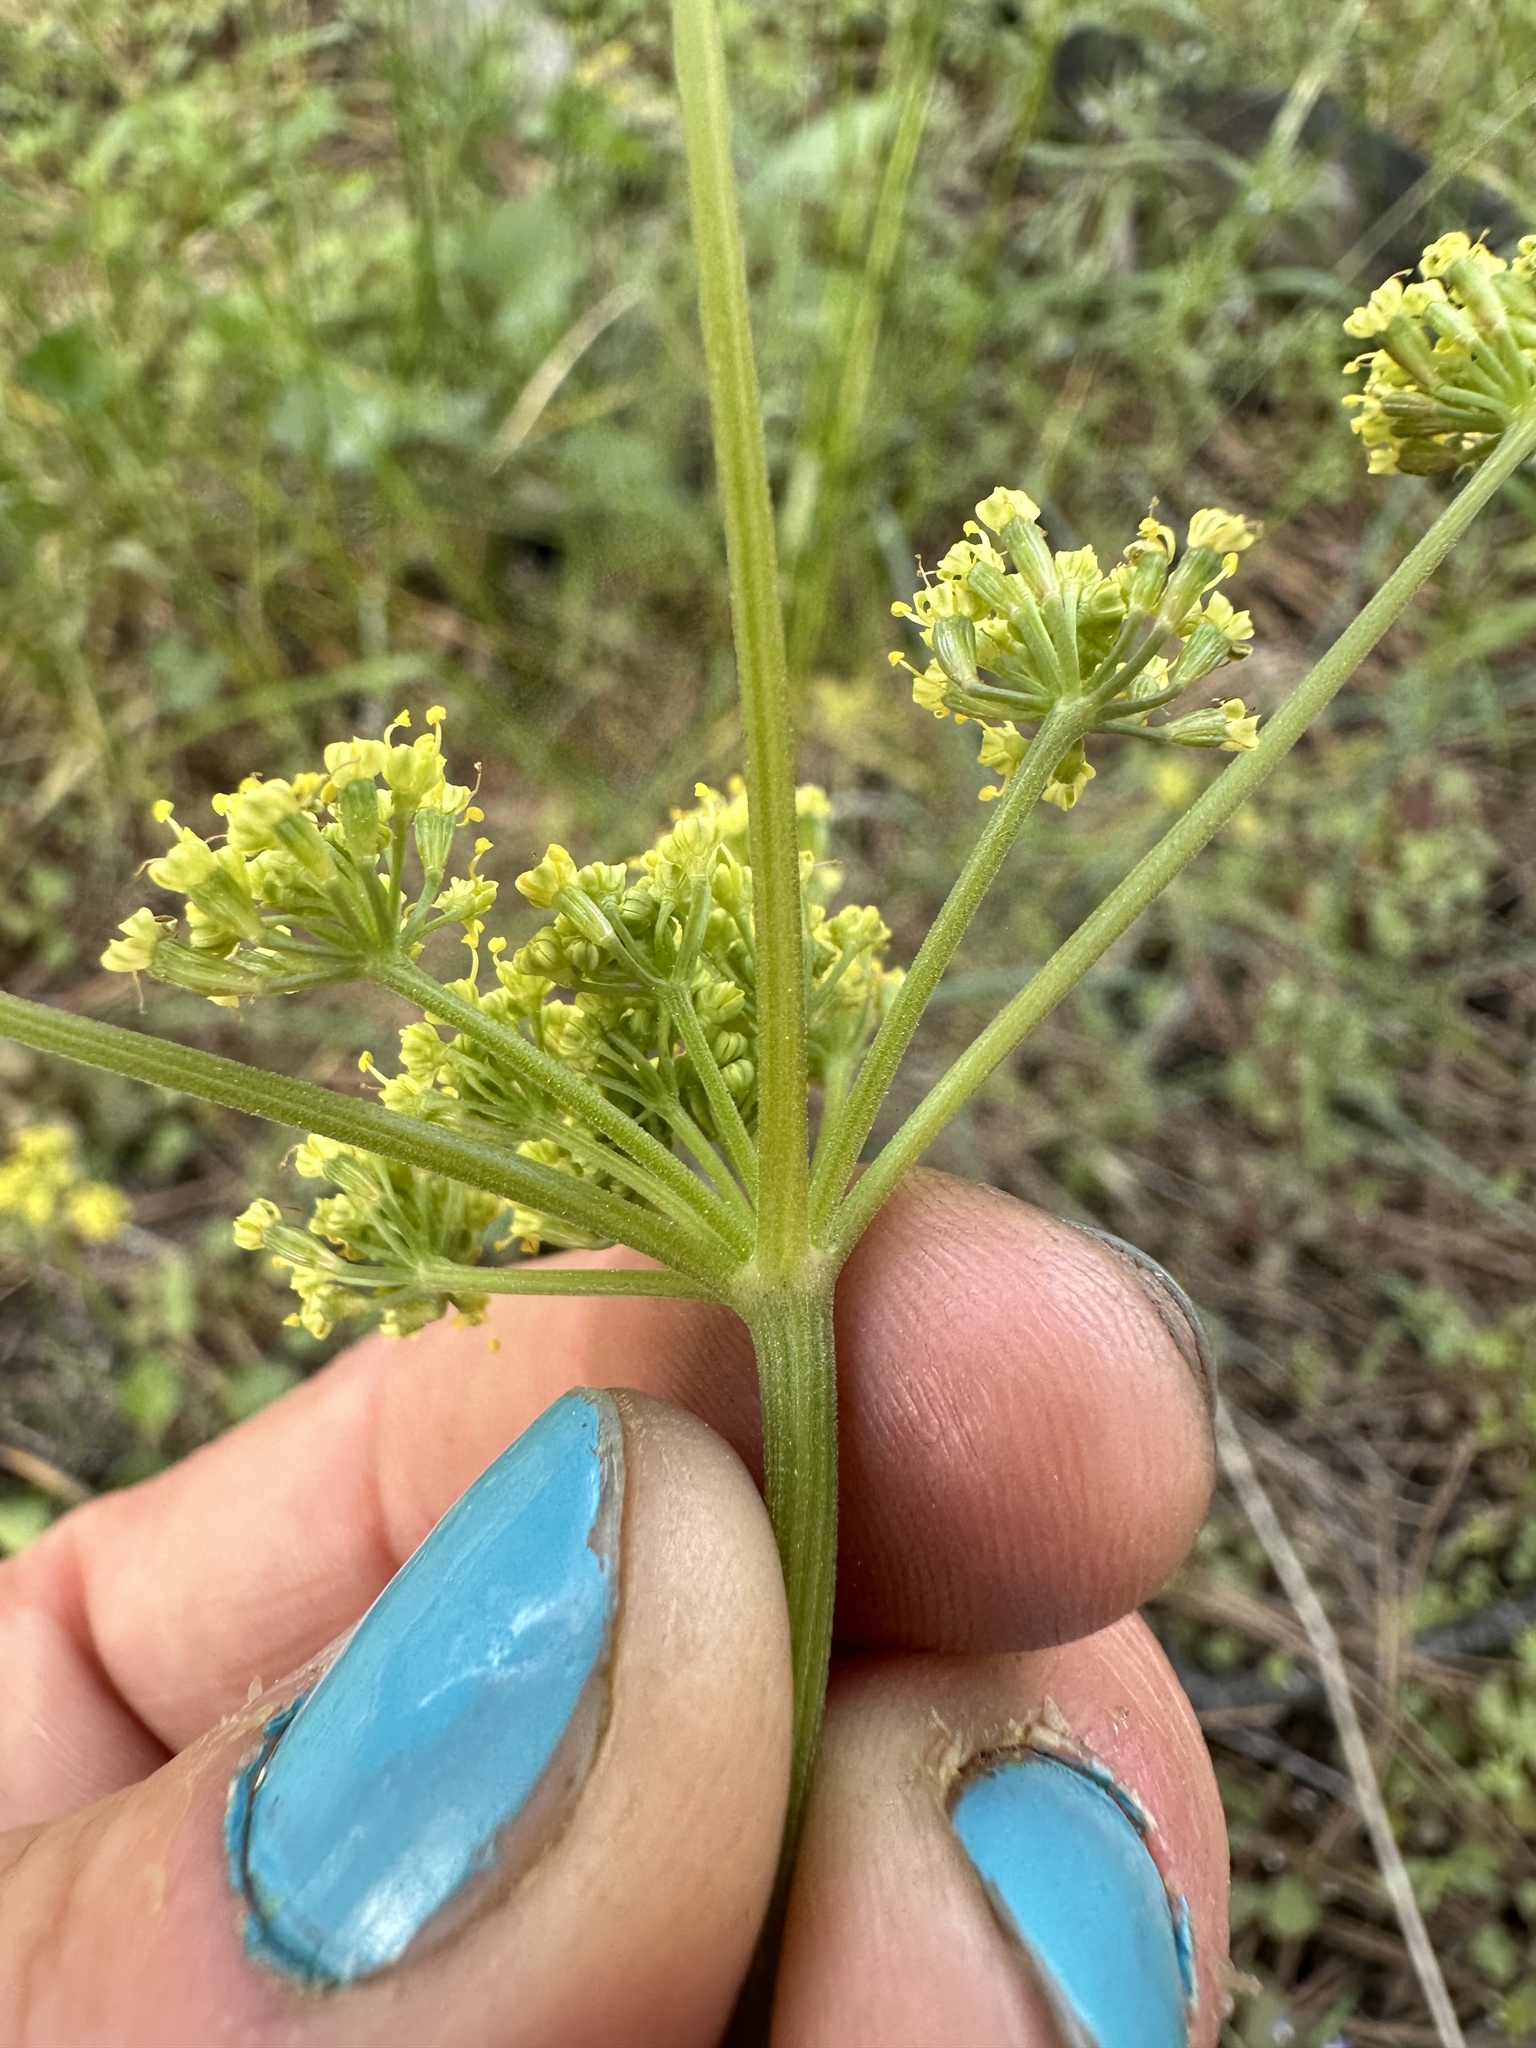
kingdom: Plantae
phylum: Tracheophyta
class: Magnoliopsida
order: Apiales
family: Apiaceae
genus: Lomatium
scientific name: Lomatium simplex
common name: Great basin biscuitroot
